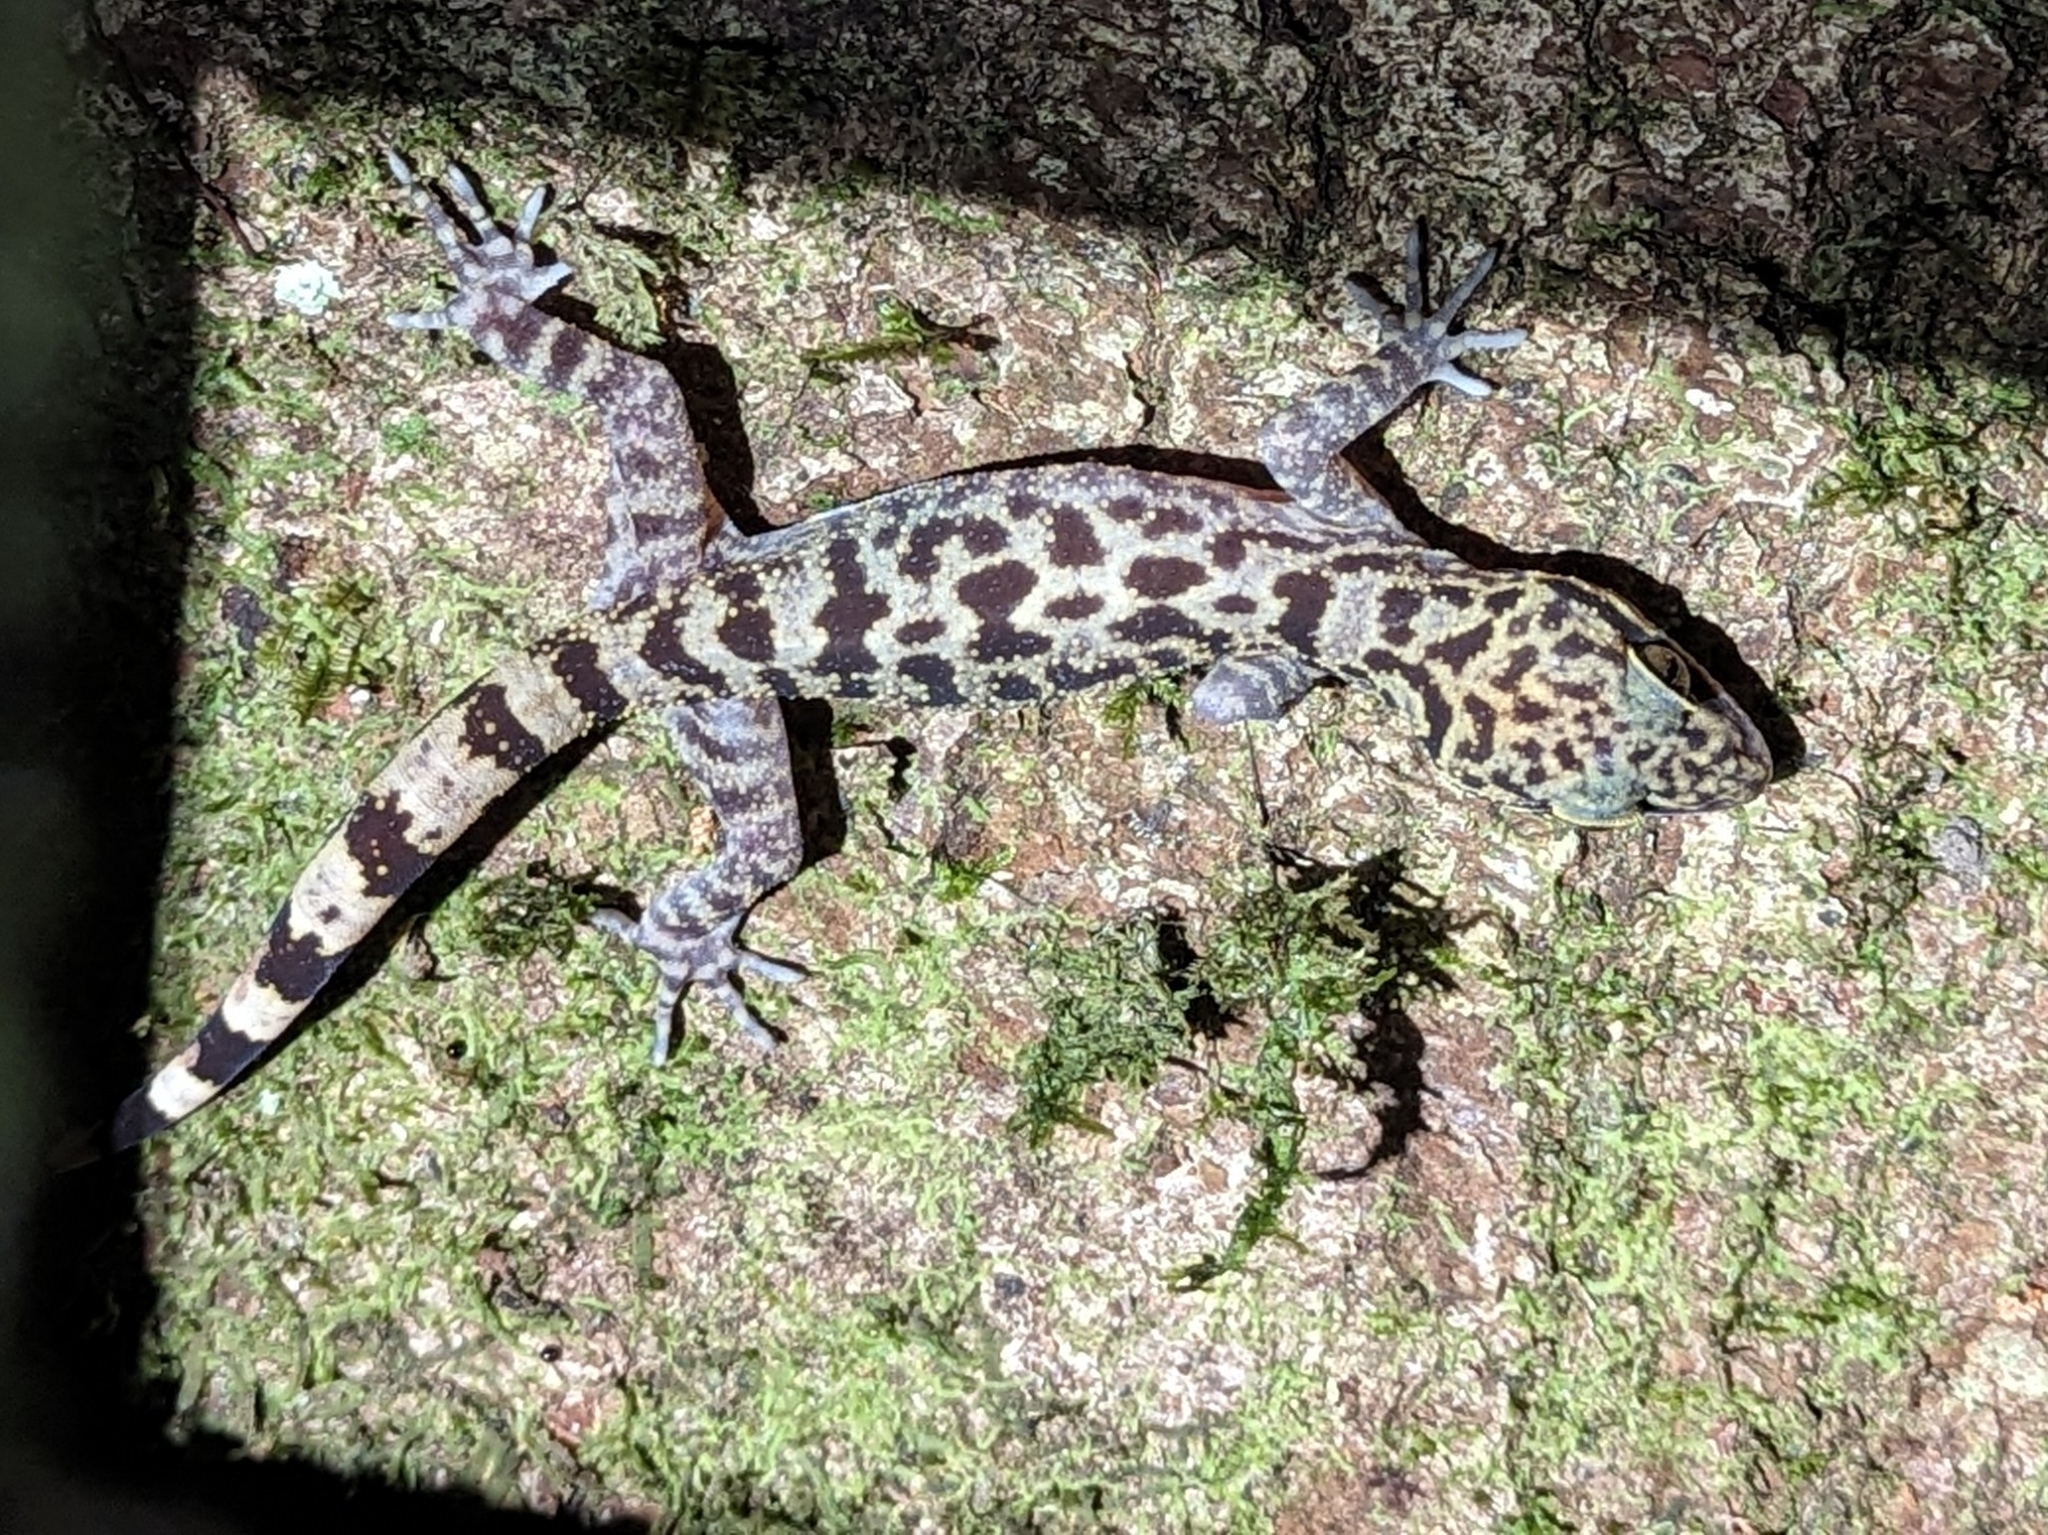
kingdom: Animalia
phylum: Chordata
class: Squamata
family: Gekkonidae
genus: Cyrtodactylus
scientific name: Cyrtodactylus baluensis
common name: Balu bow-fingered gecko
